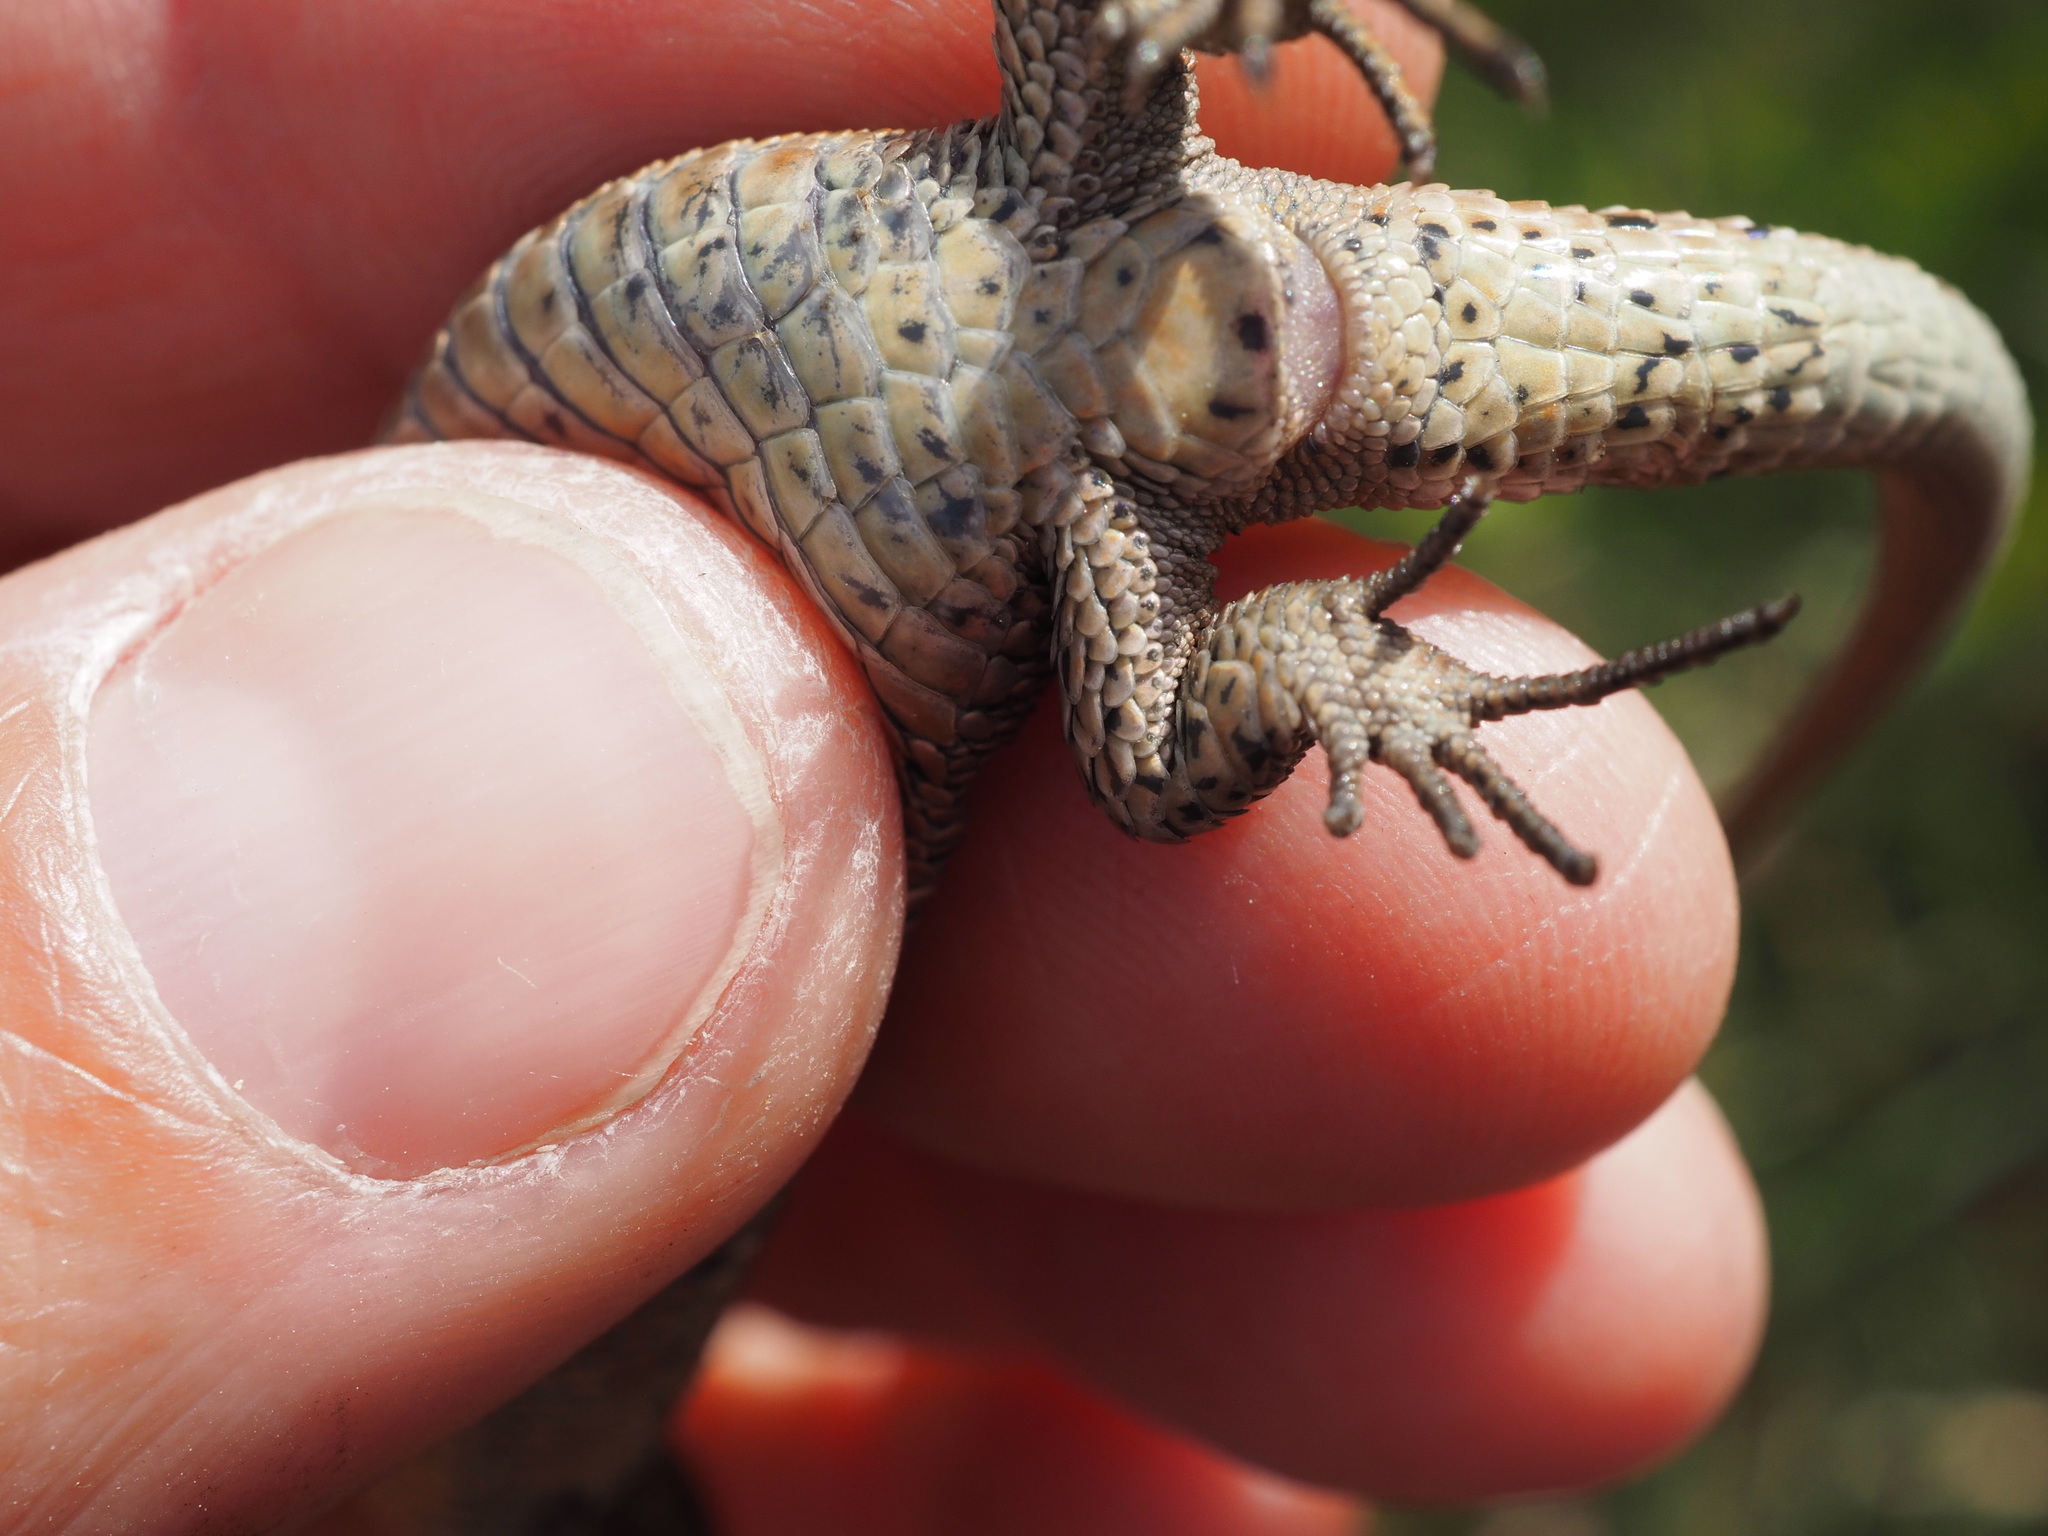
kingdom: Animalia
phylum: Chordata
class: Squamata
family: Lacertidae
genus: Zootoca
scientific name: Zootoca vivipara
